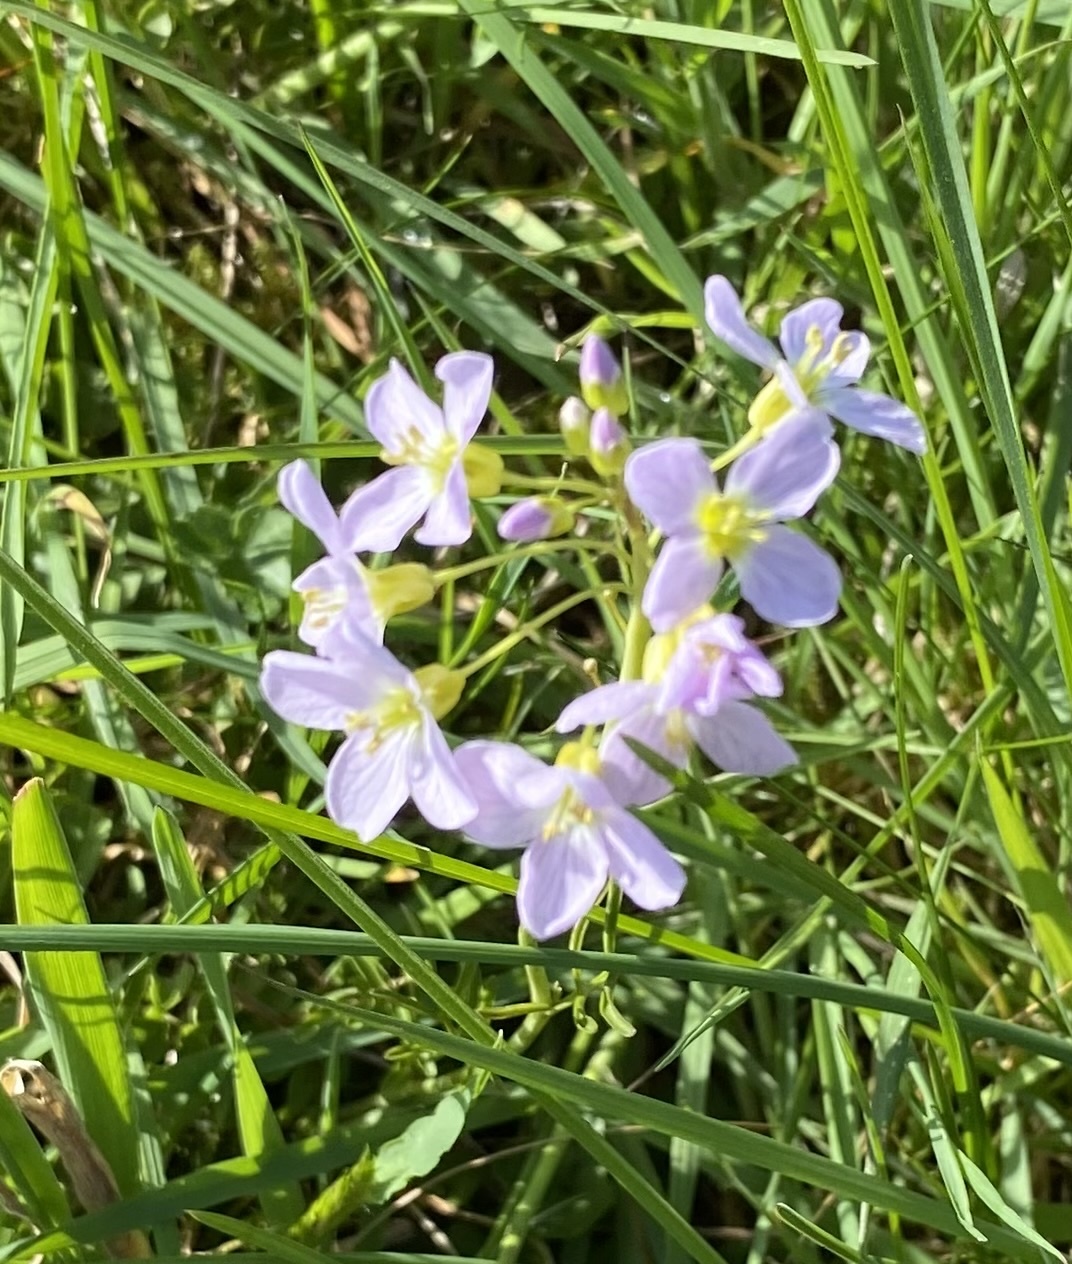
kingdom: Plantae
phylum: Tracheophyta
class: Magnoliopsida
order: Brassicales
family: Brassicaceae
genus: Cardamine
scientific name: Cardamine pratensis
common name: Cuckoo flower
